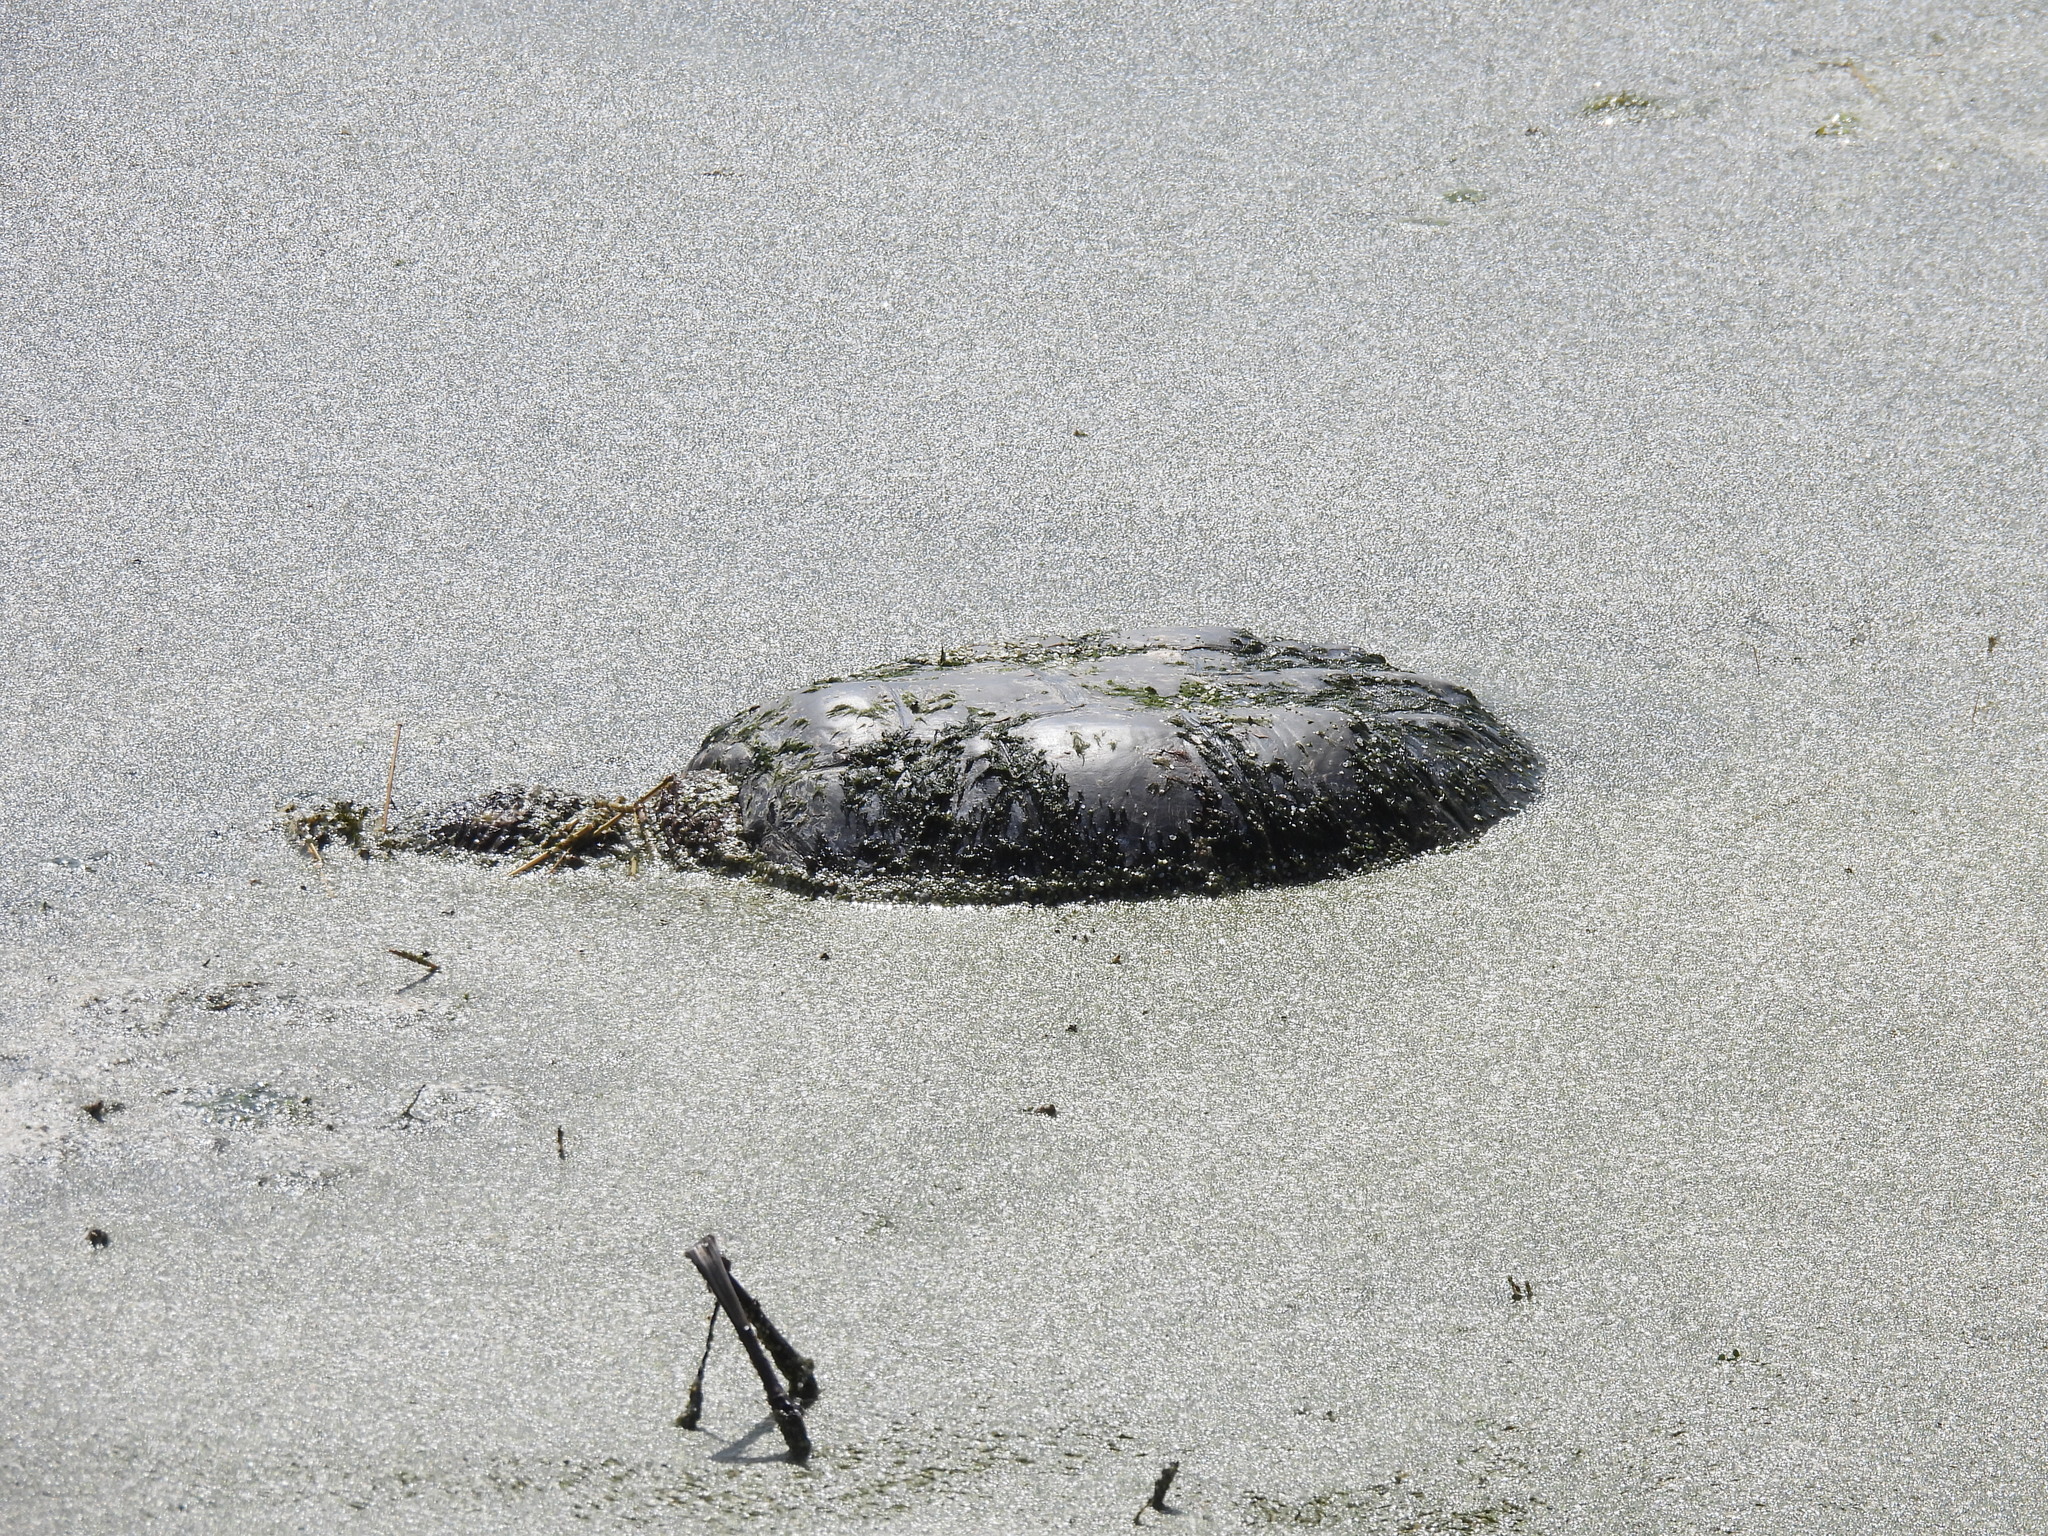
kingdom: Animalia
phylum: Chordata
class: Testudines
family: Chelydridae
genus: Chelydra
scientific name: Chelydra serpentina
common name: Common snapping turtle
